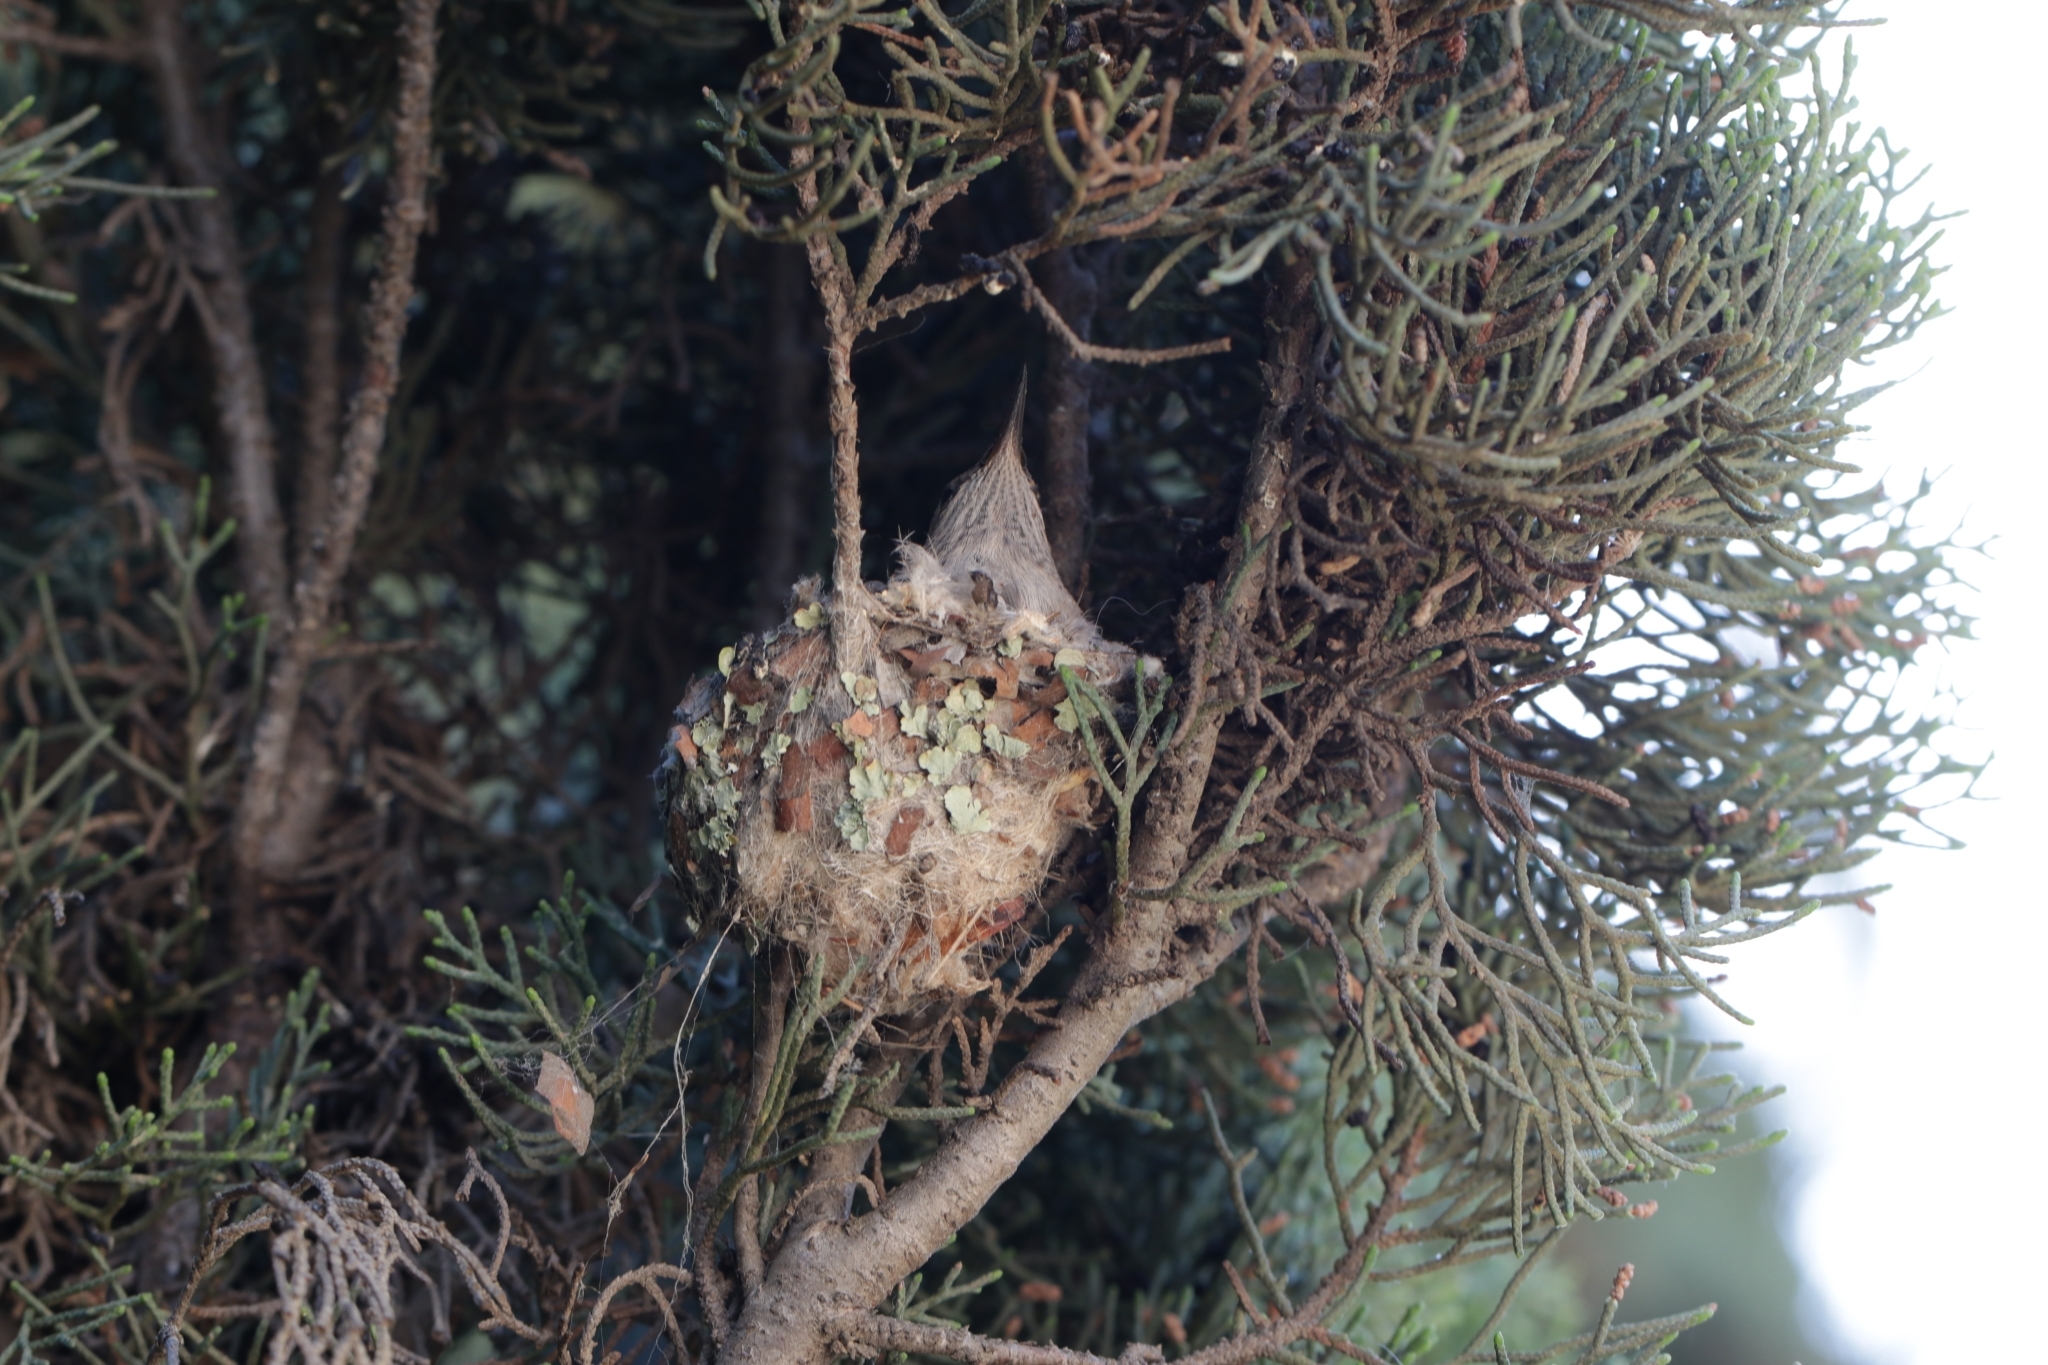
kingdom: Animalia
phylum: Chordata
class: Aves
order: Apodiformes
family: Trochilidae
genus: Calypte
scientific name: Calypte anna
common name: Anna's hummingbird
